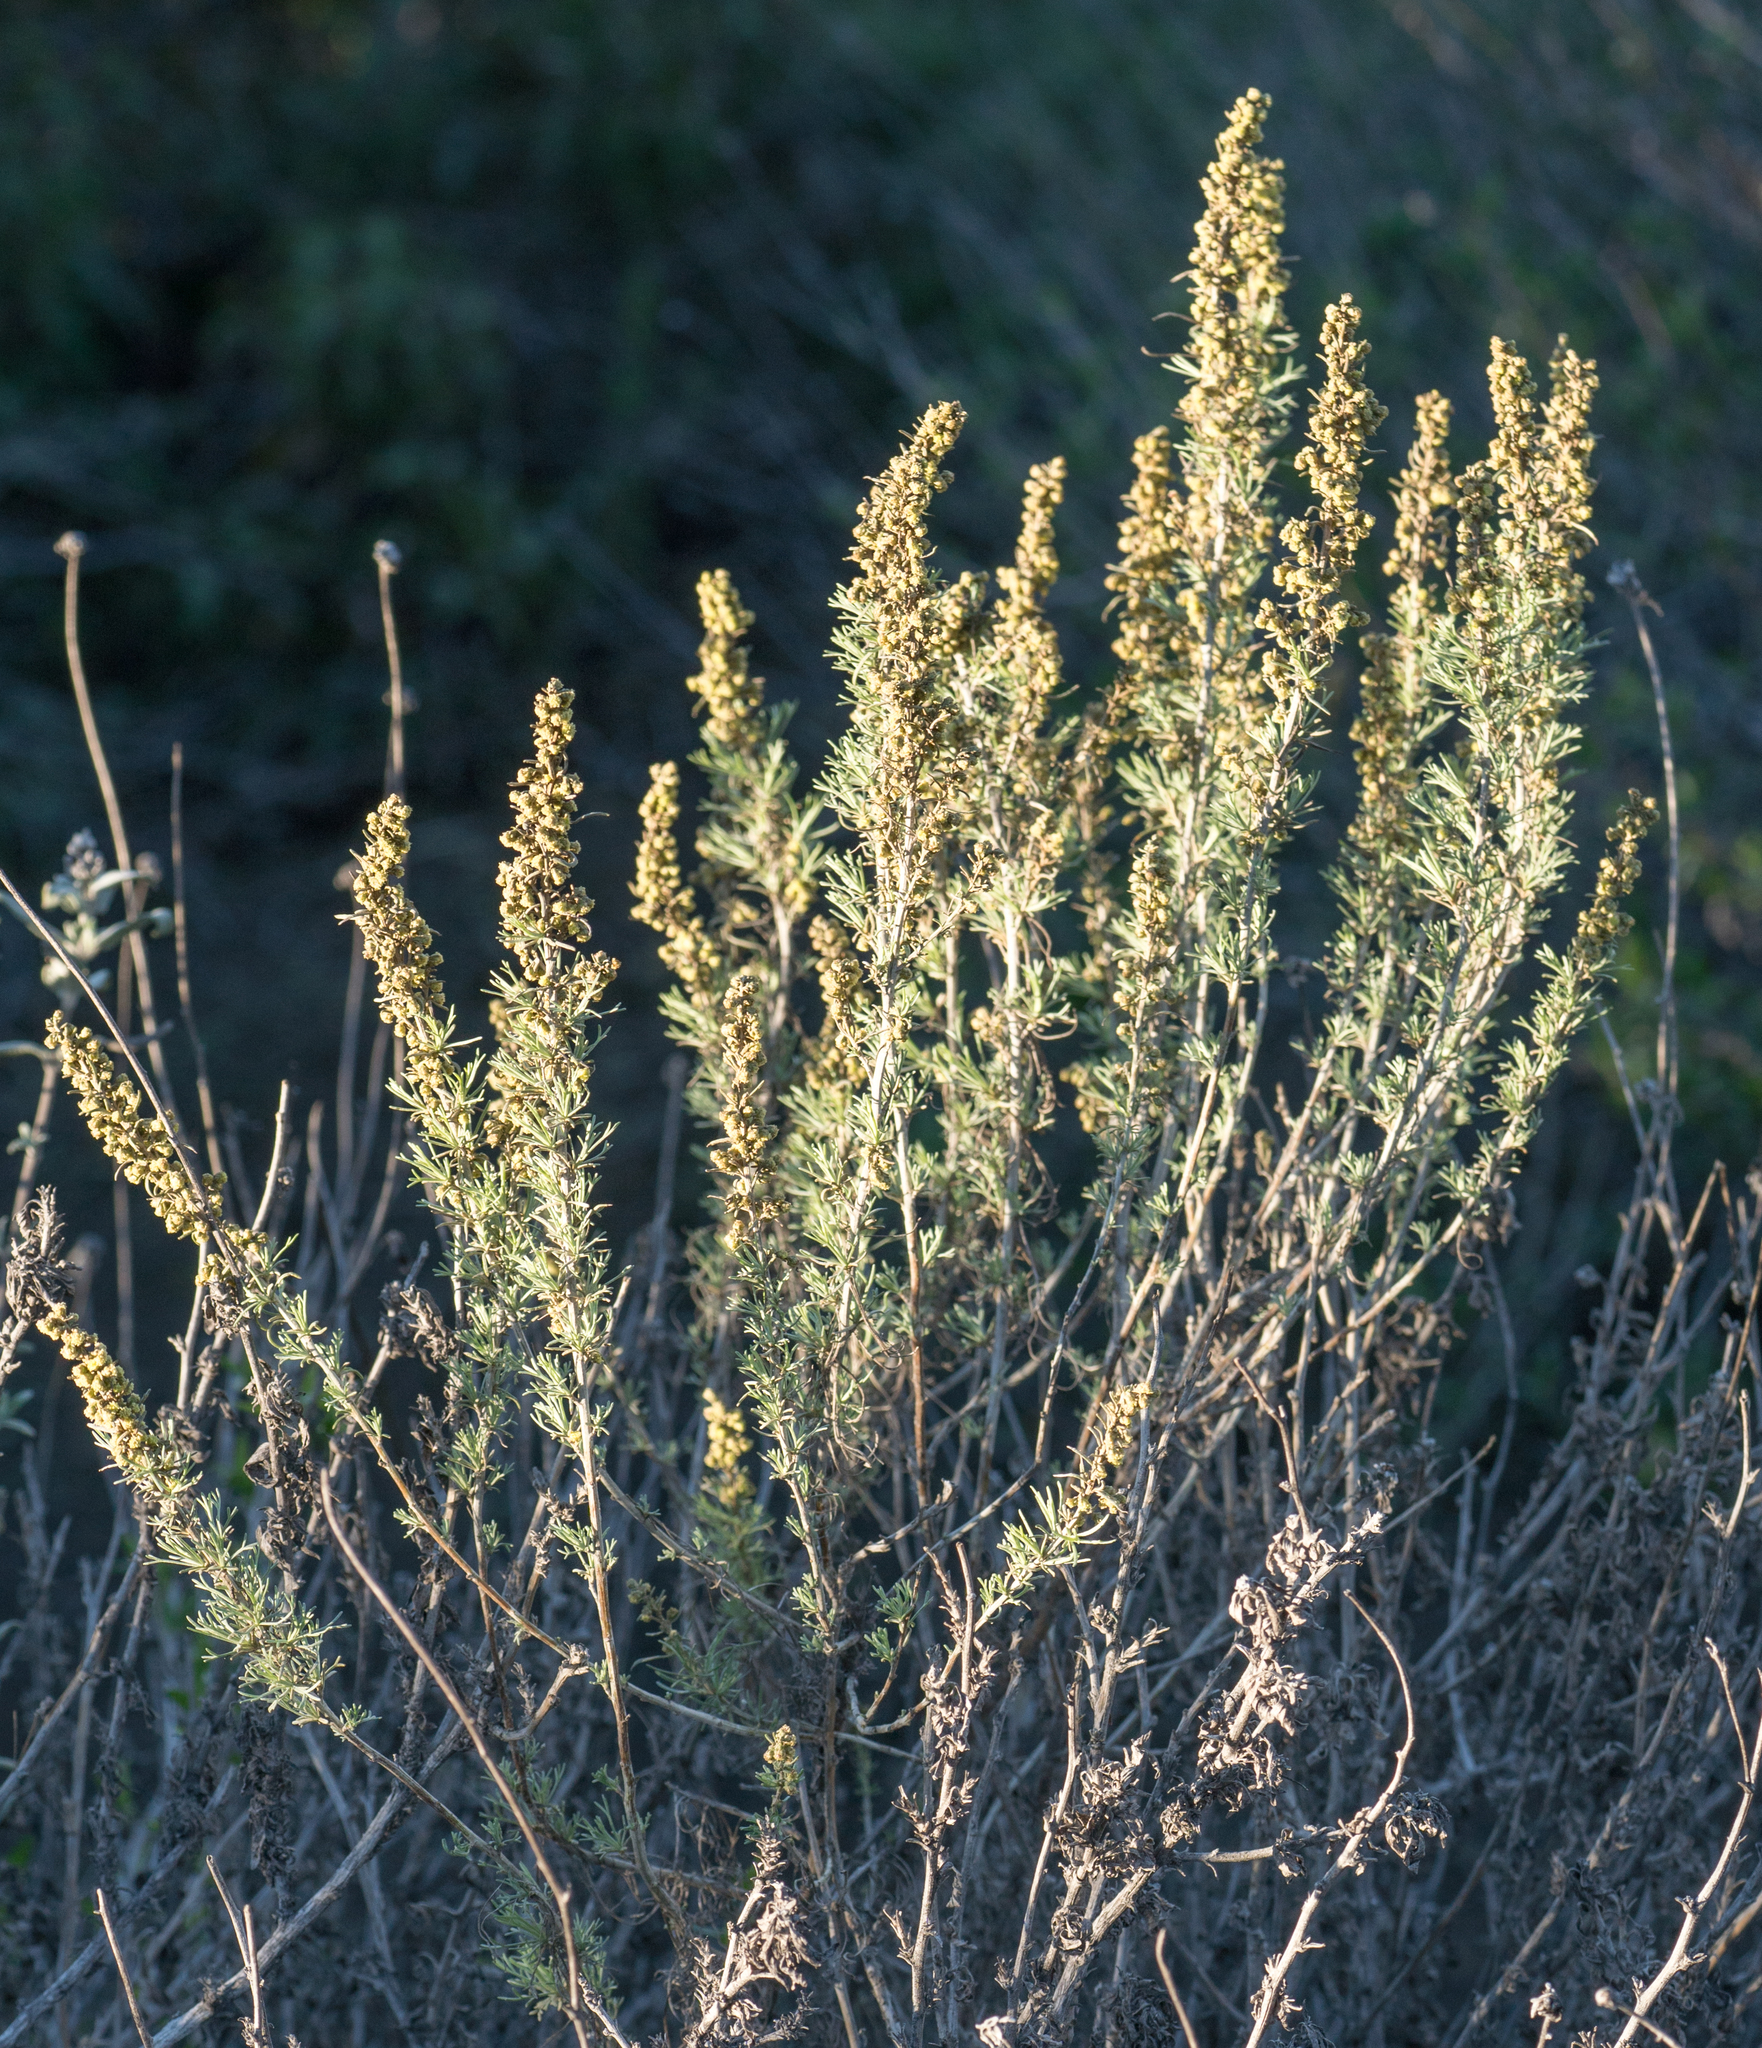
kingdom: Plantae
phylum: Tracheophyta
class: Magnoliopsida
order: Asterales
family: Asteraceae
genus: Artemisia
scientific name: Artemisia californica
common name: California sagebrush
